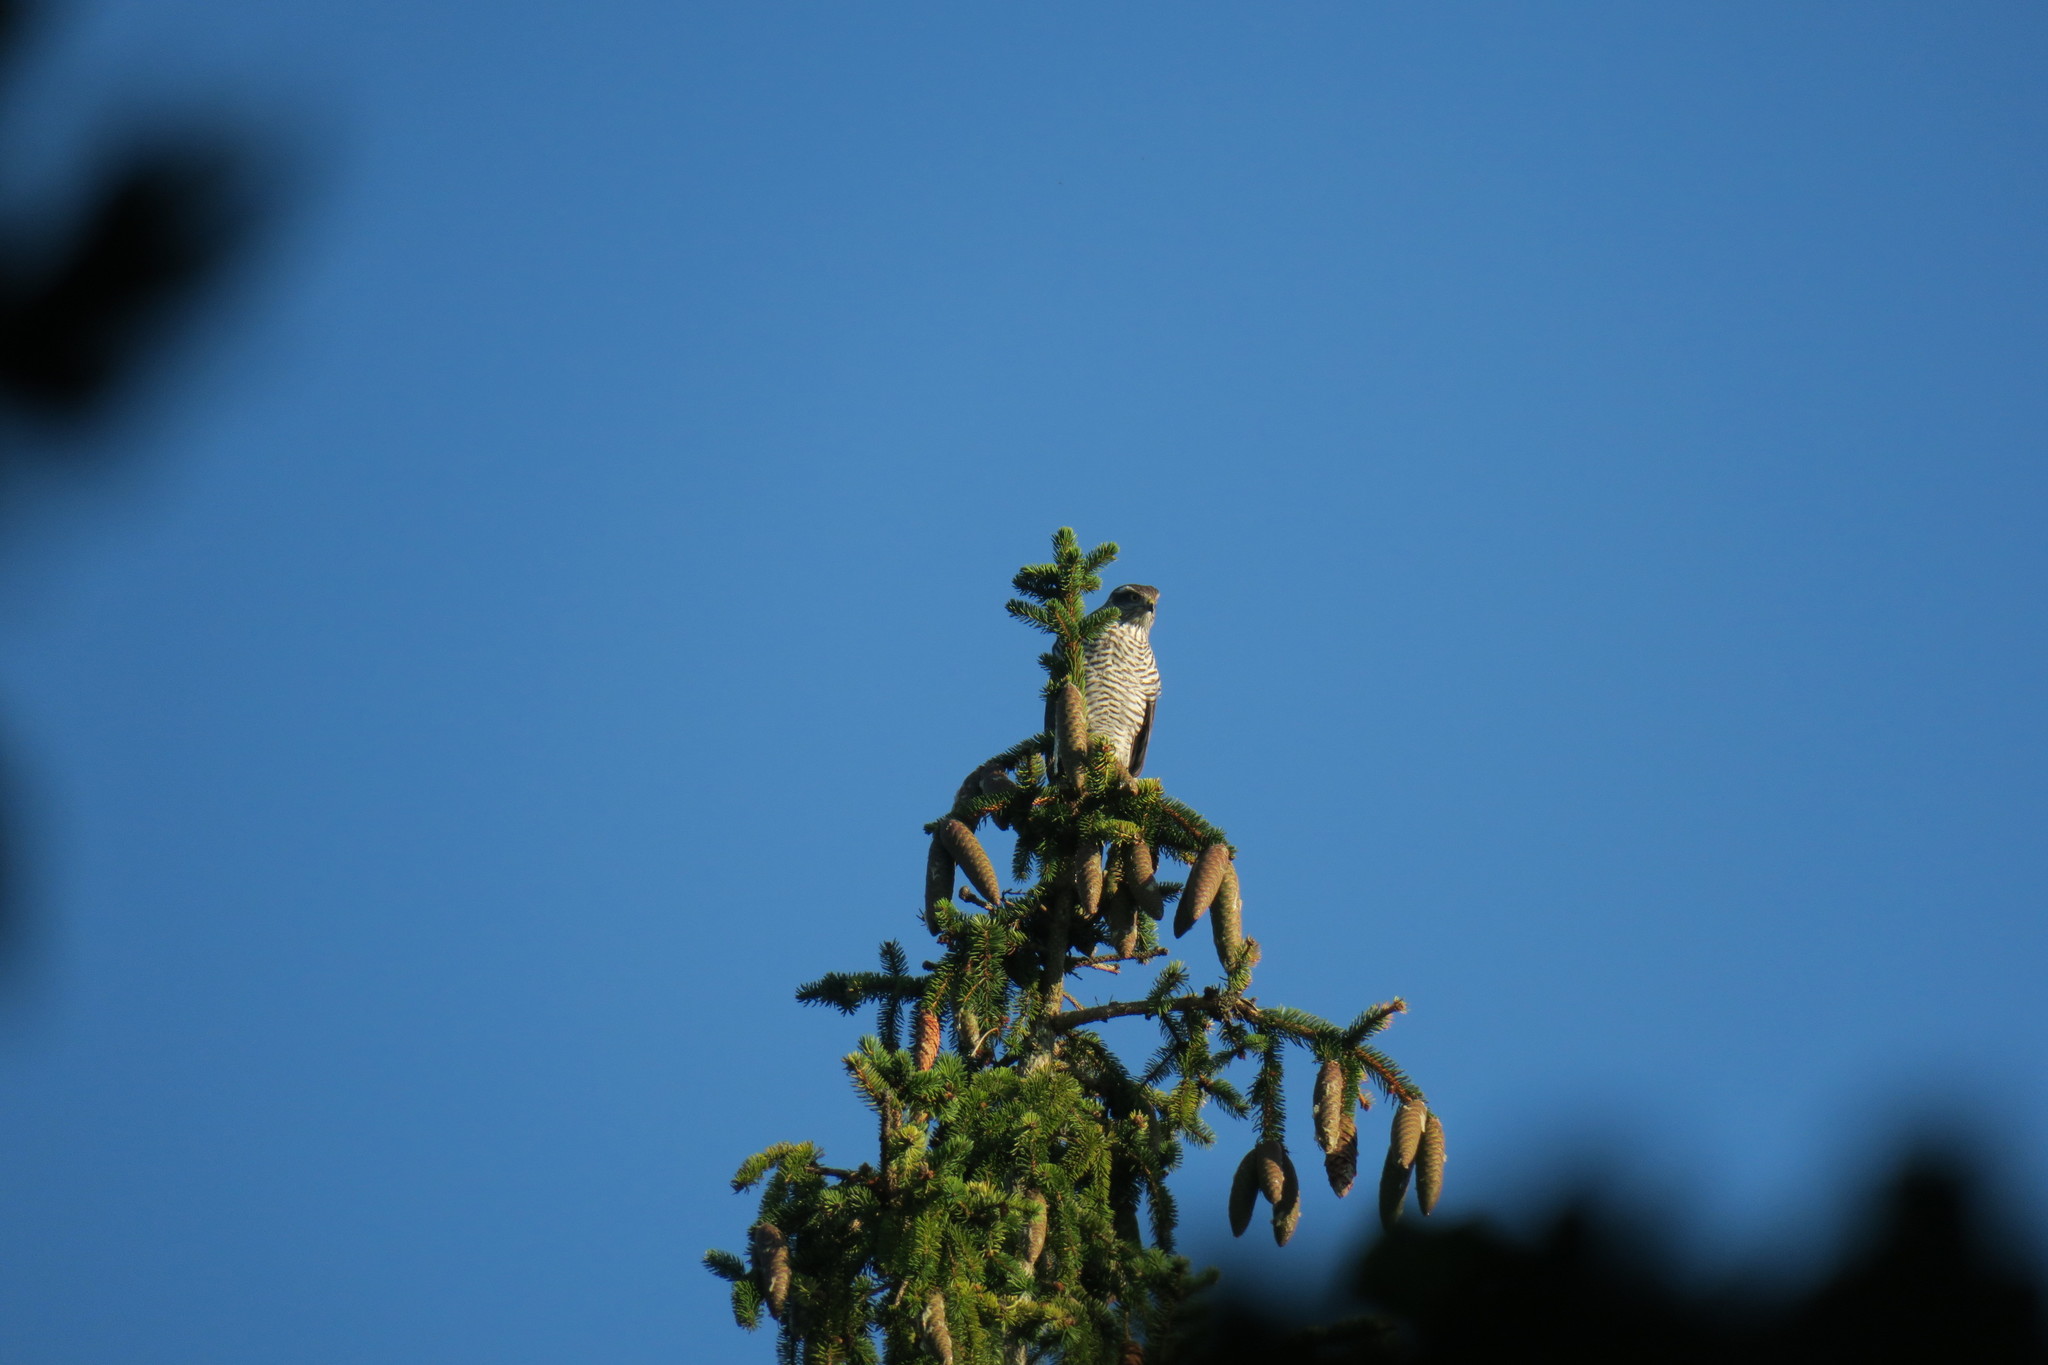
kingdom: Animalia
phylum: Chordata
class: Aves
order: Accipitriformes
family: Accipitridae
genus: Accipiter
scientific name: Accipiter nisus
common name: Eurasian sparrowhawk
